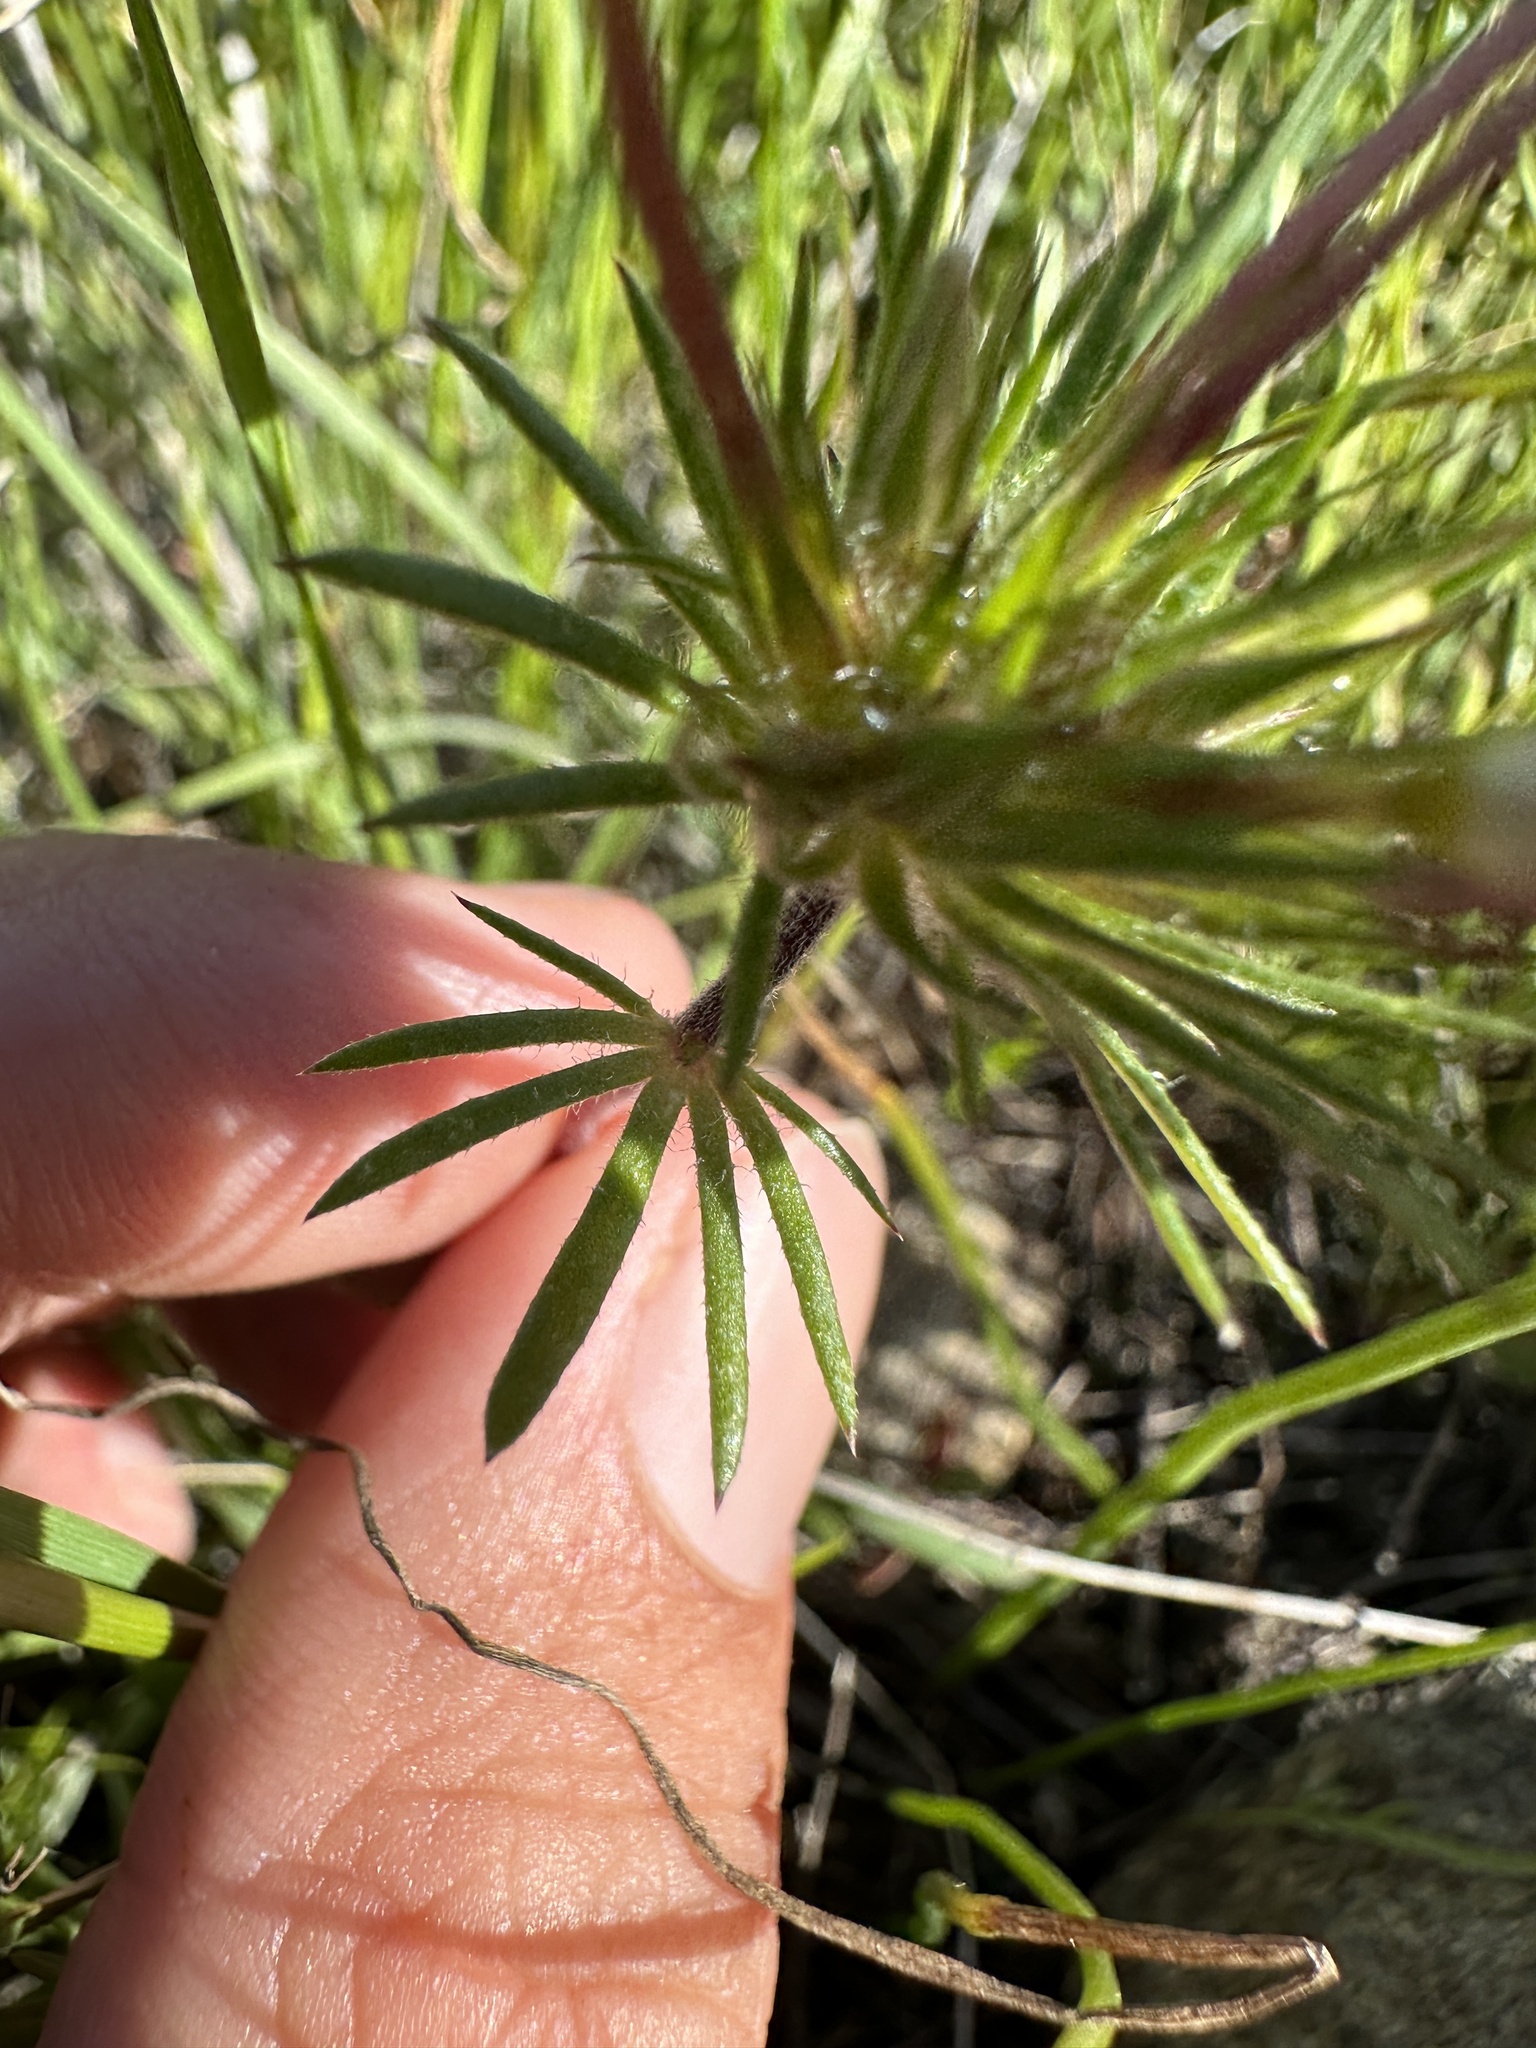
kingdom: Plantae
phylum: Tracheophyta
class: Magnoliopsida
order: Ericales
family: Polemoniaceae
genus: Leptosiphon
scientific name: Leptosiphon androsaceus
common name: False babystars
